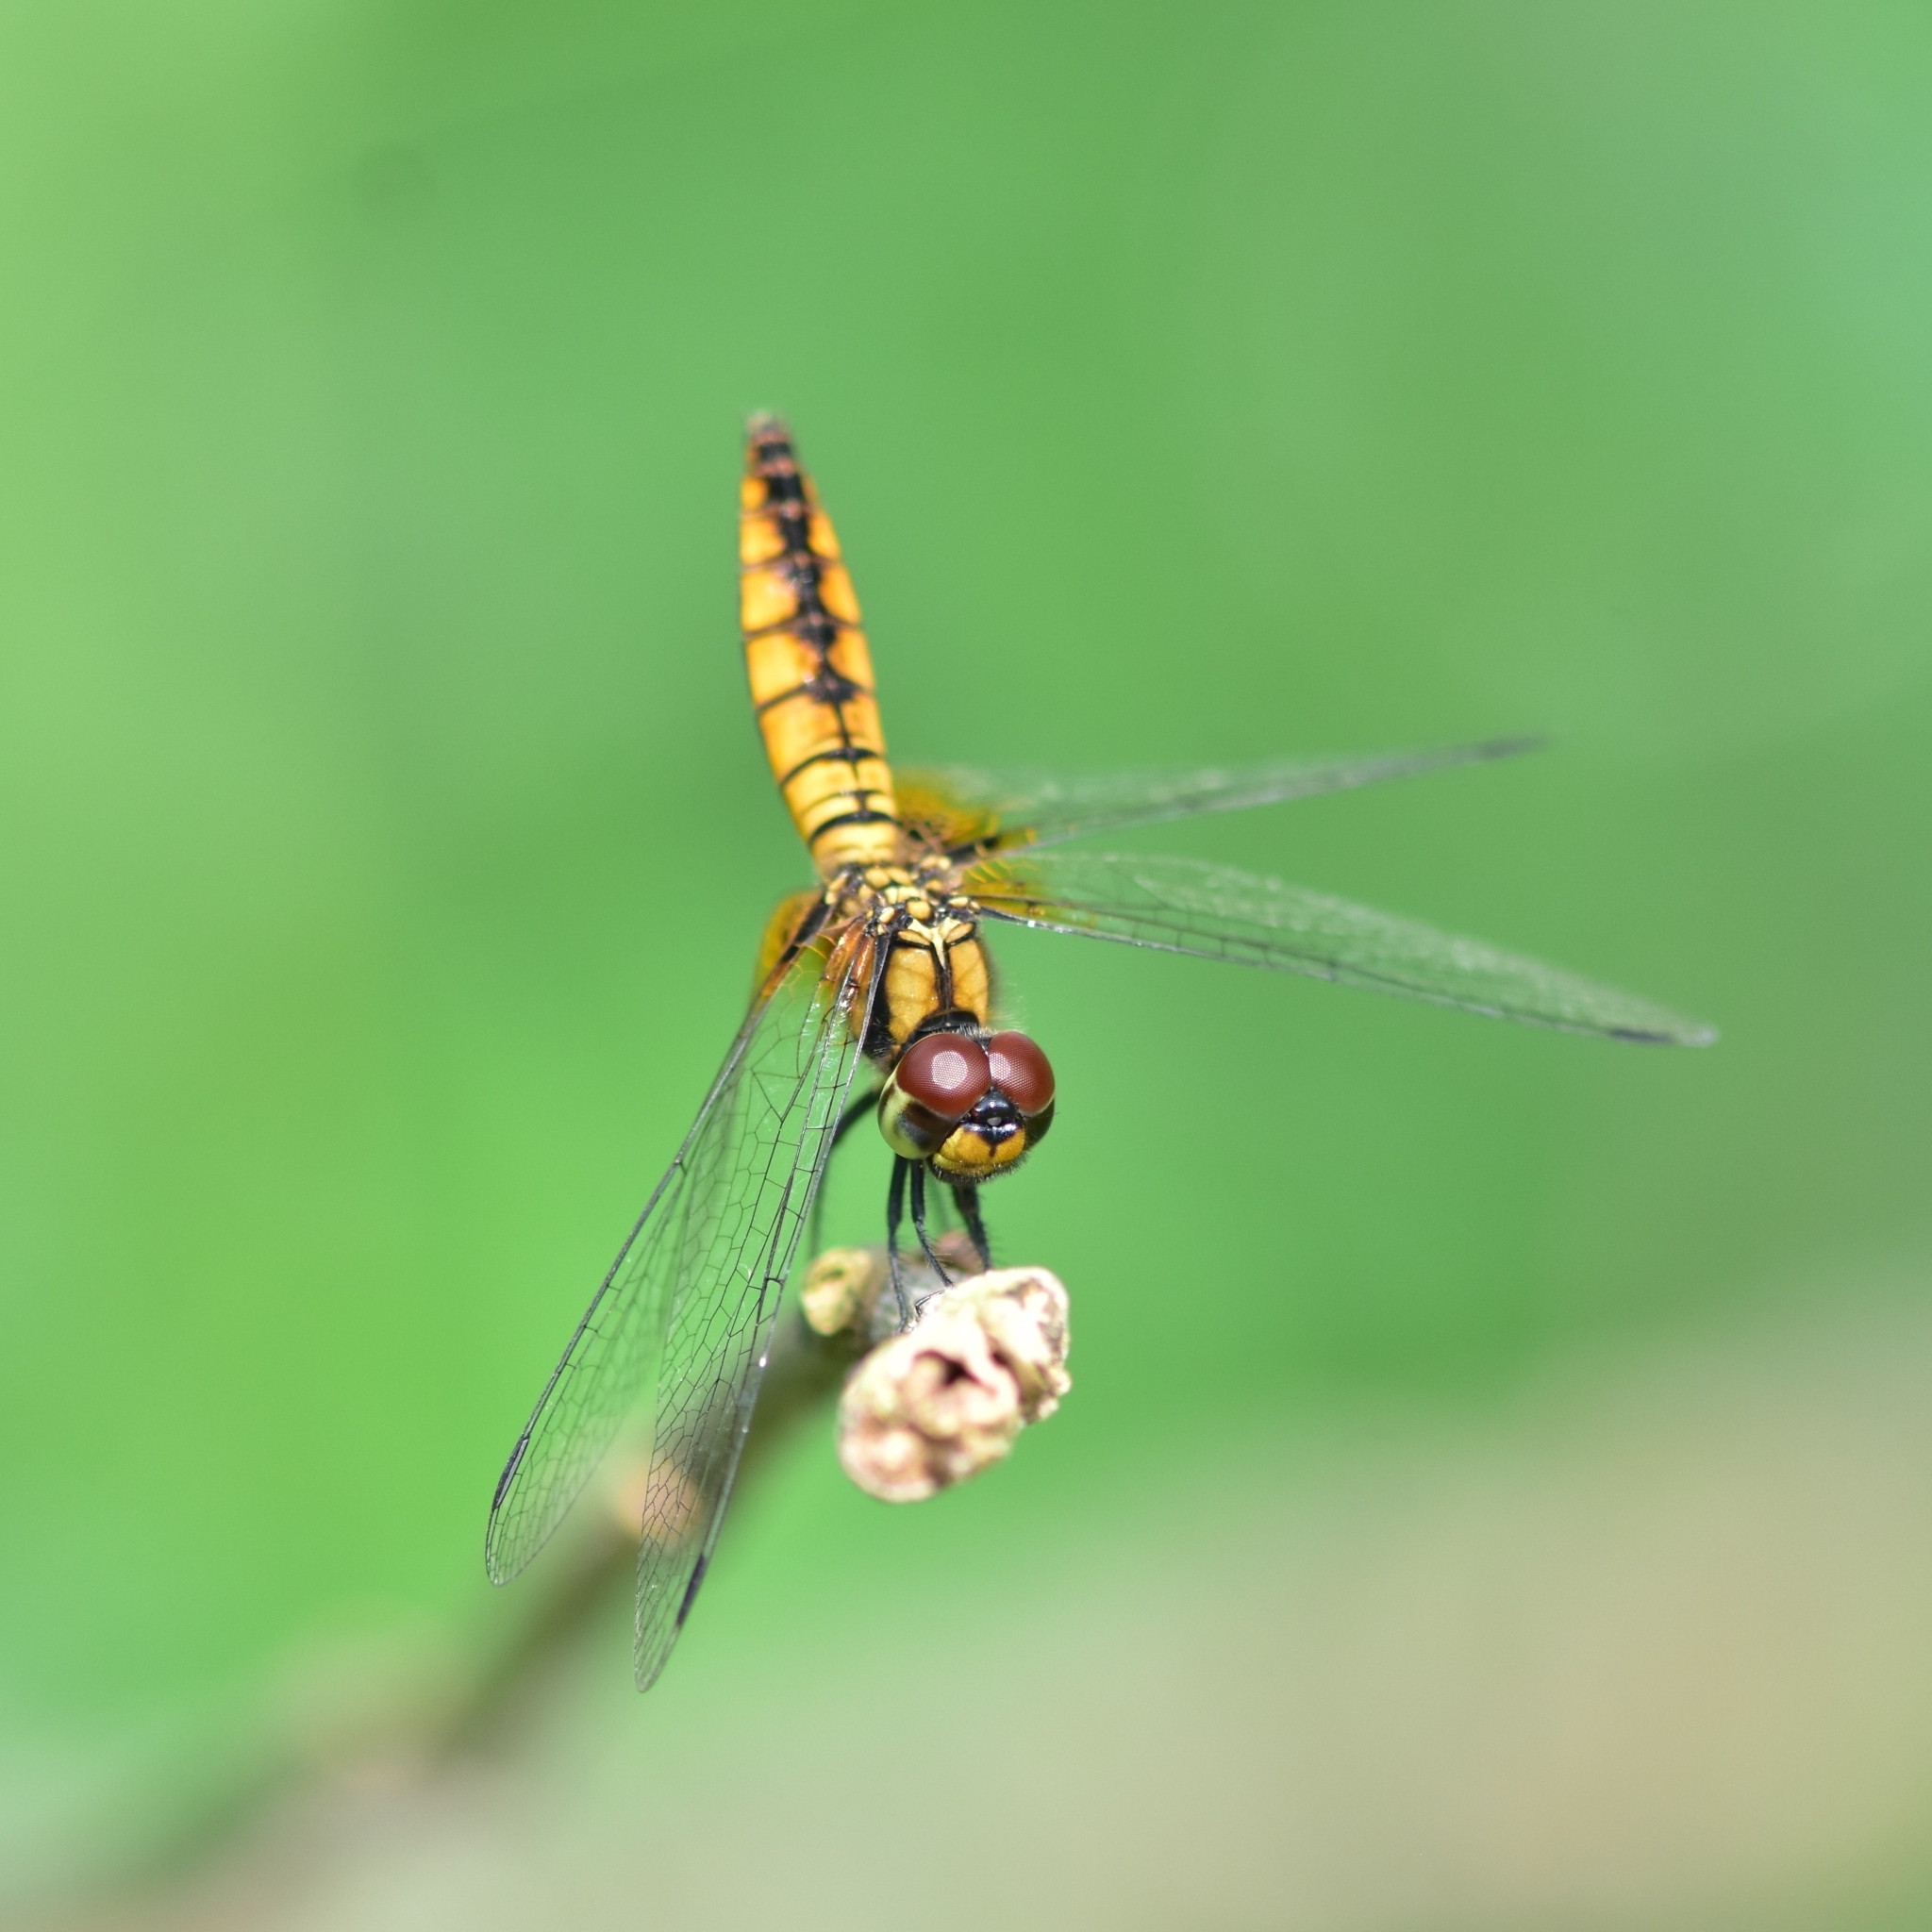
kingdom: Animalia
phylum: Arthropoda
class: Insecta
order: Odonata
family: Libellulidae
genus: Aethriamanta
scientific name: Aethriamanta brevipennis
